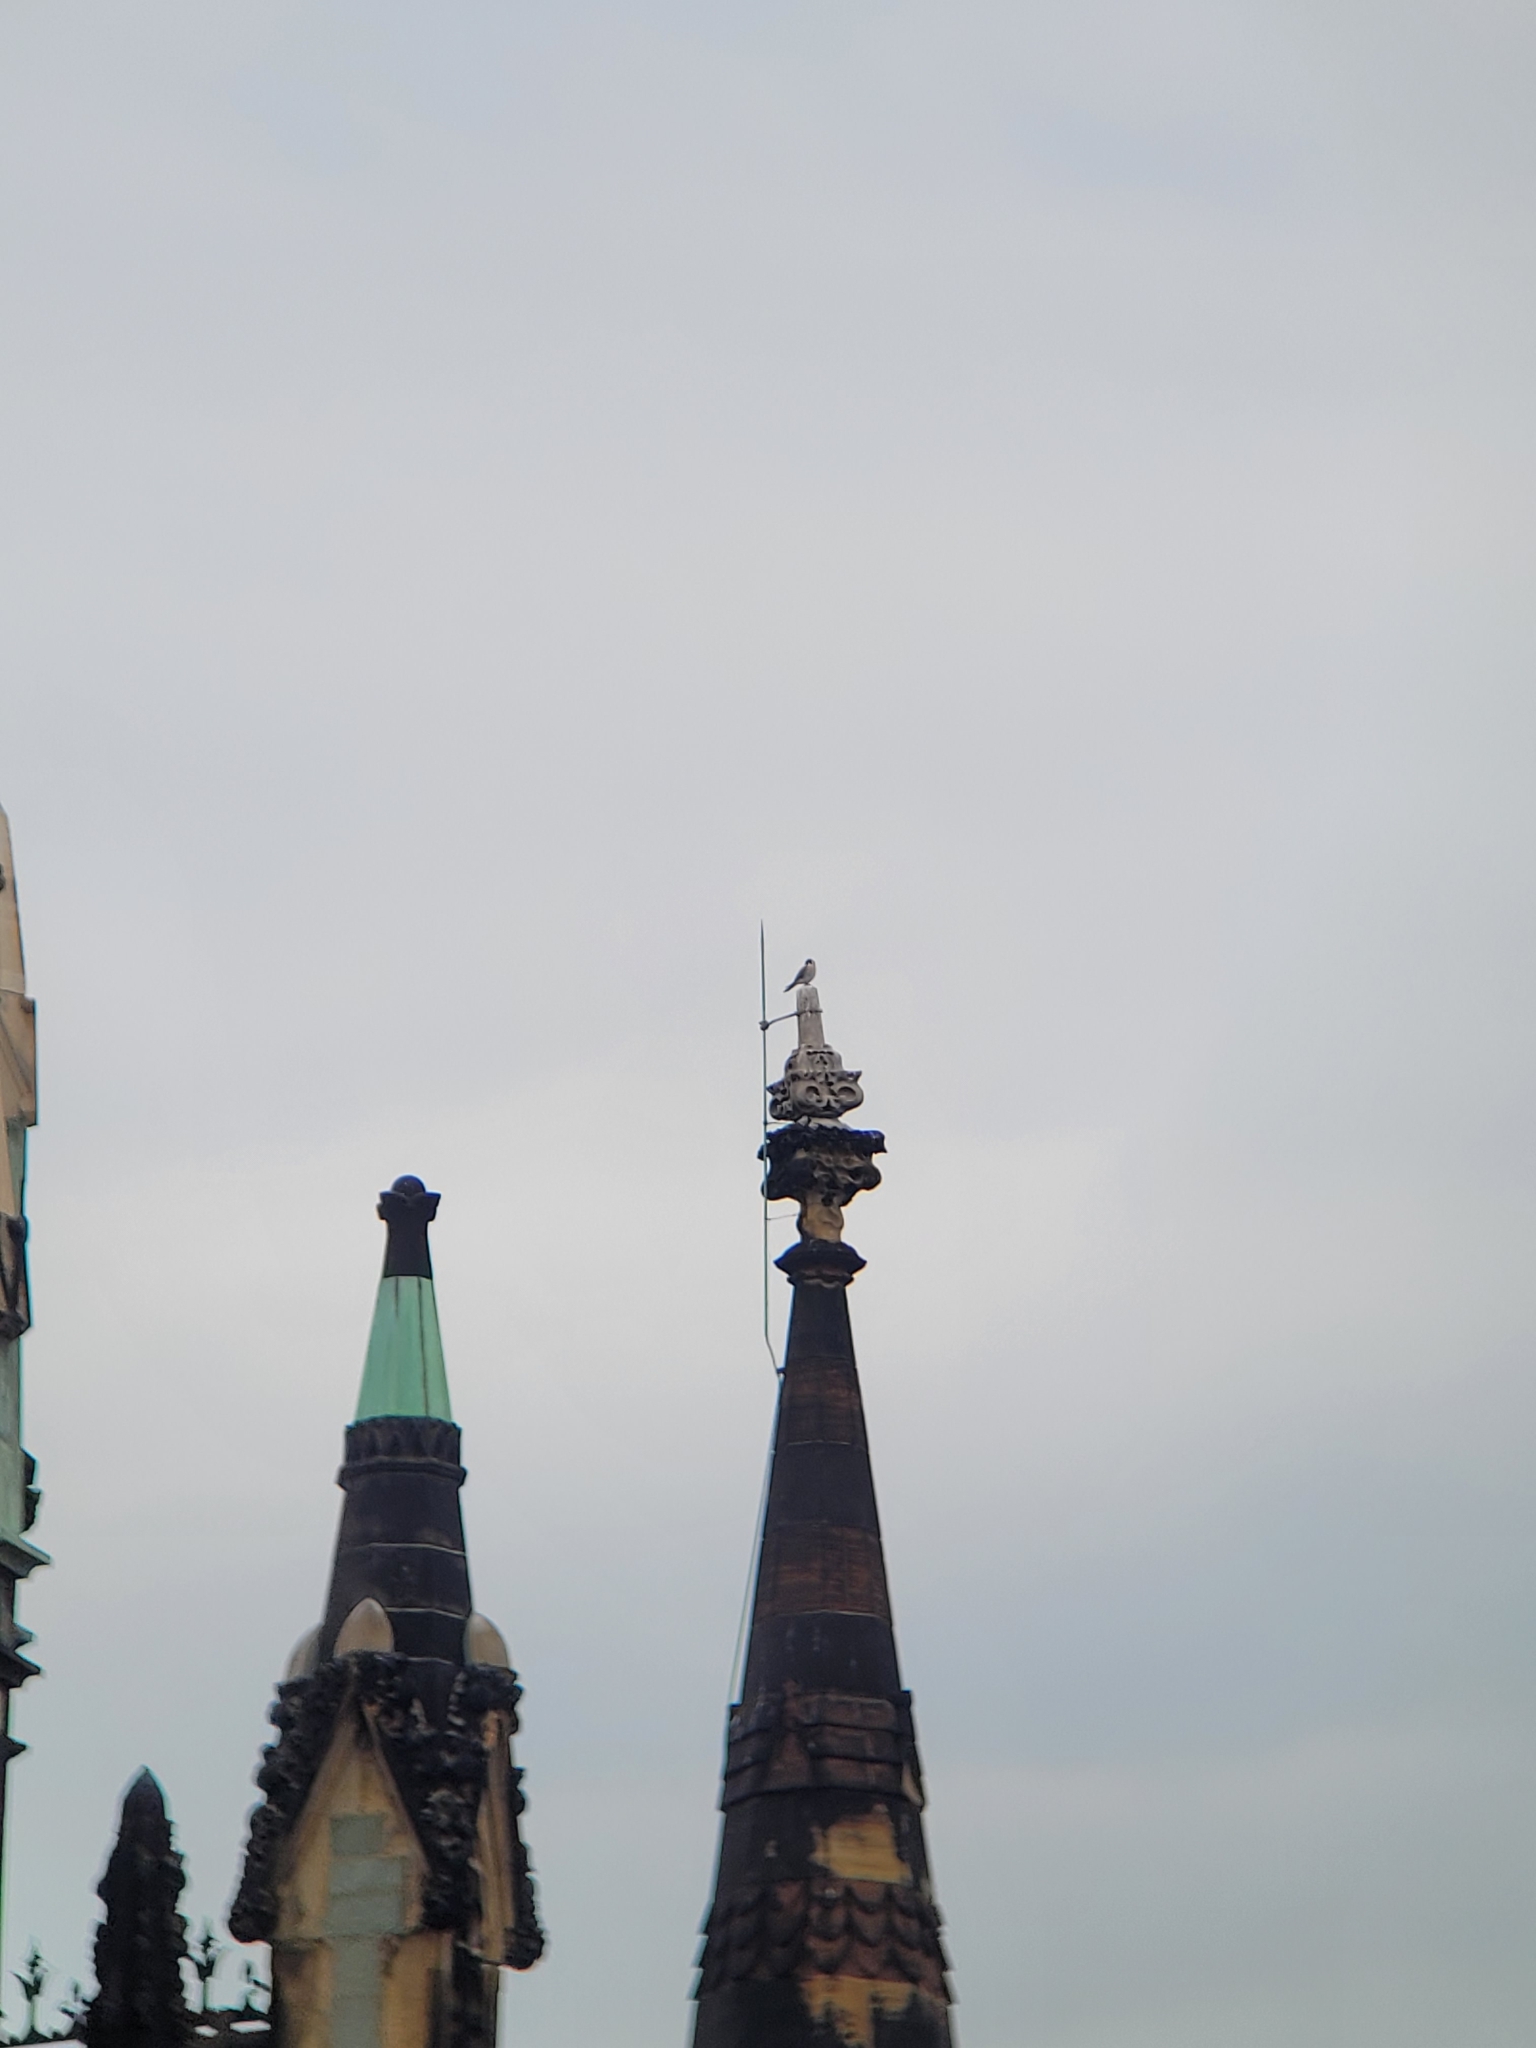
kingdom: Animalia
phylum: Chordata
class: Aves
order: Falconiformes
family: Falconidae
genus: Falco
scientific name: Falco sparverius
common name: American kestrel
